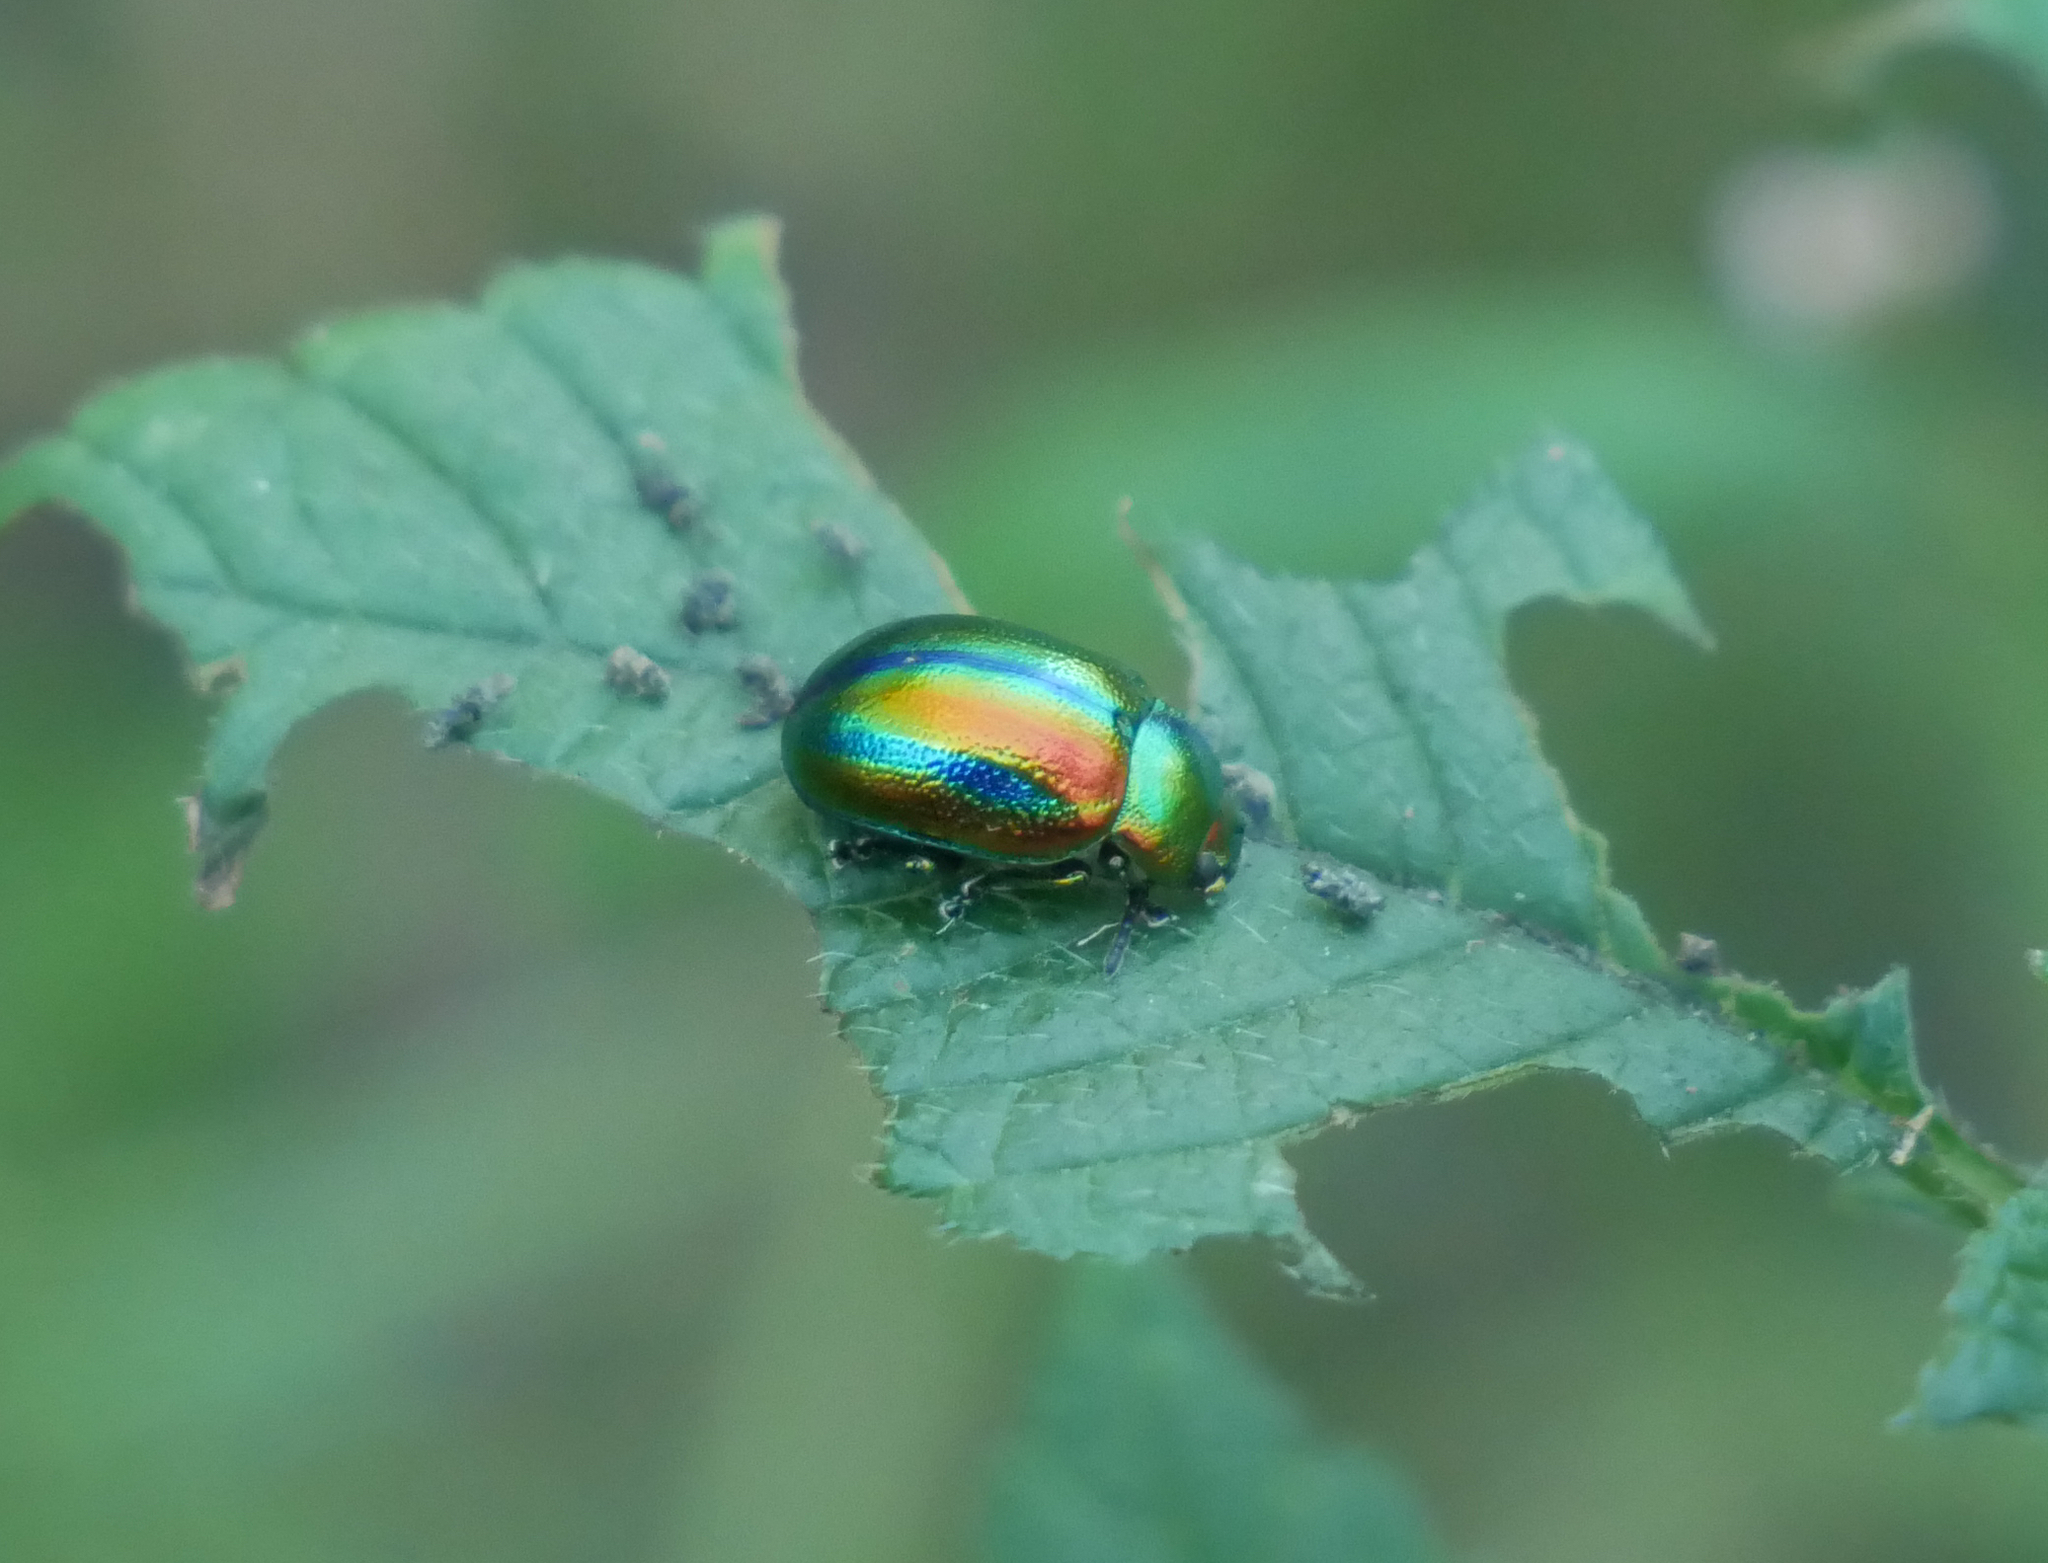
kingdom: Animalia
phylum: Arthropoda
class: Insecta
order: Coleoptera
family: Chrysomelidae
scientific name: Chrysomelidae
